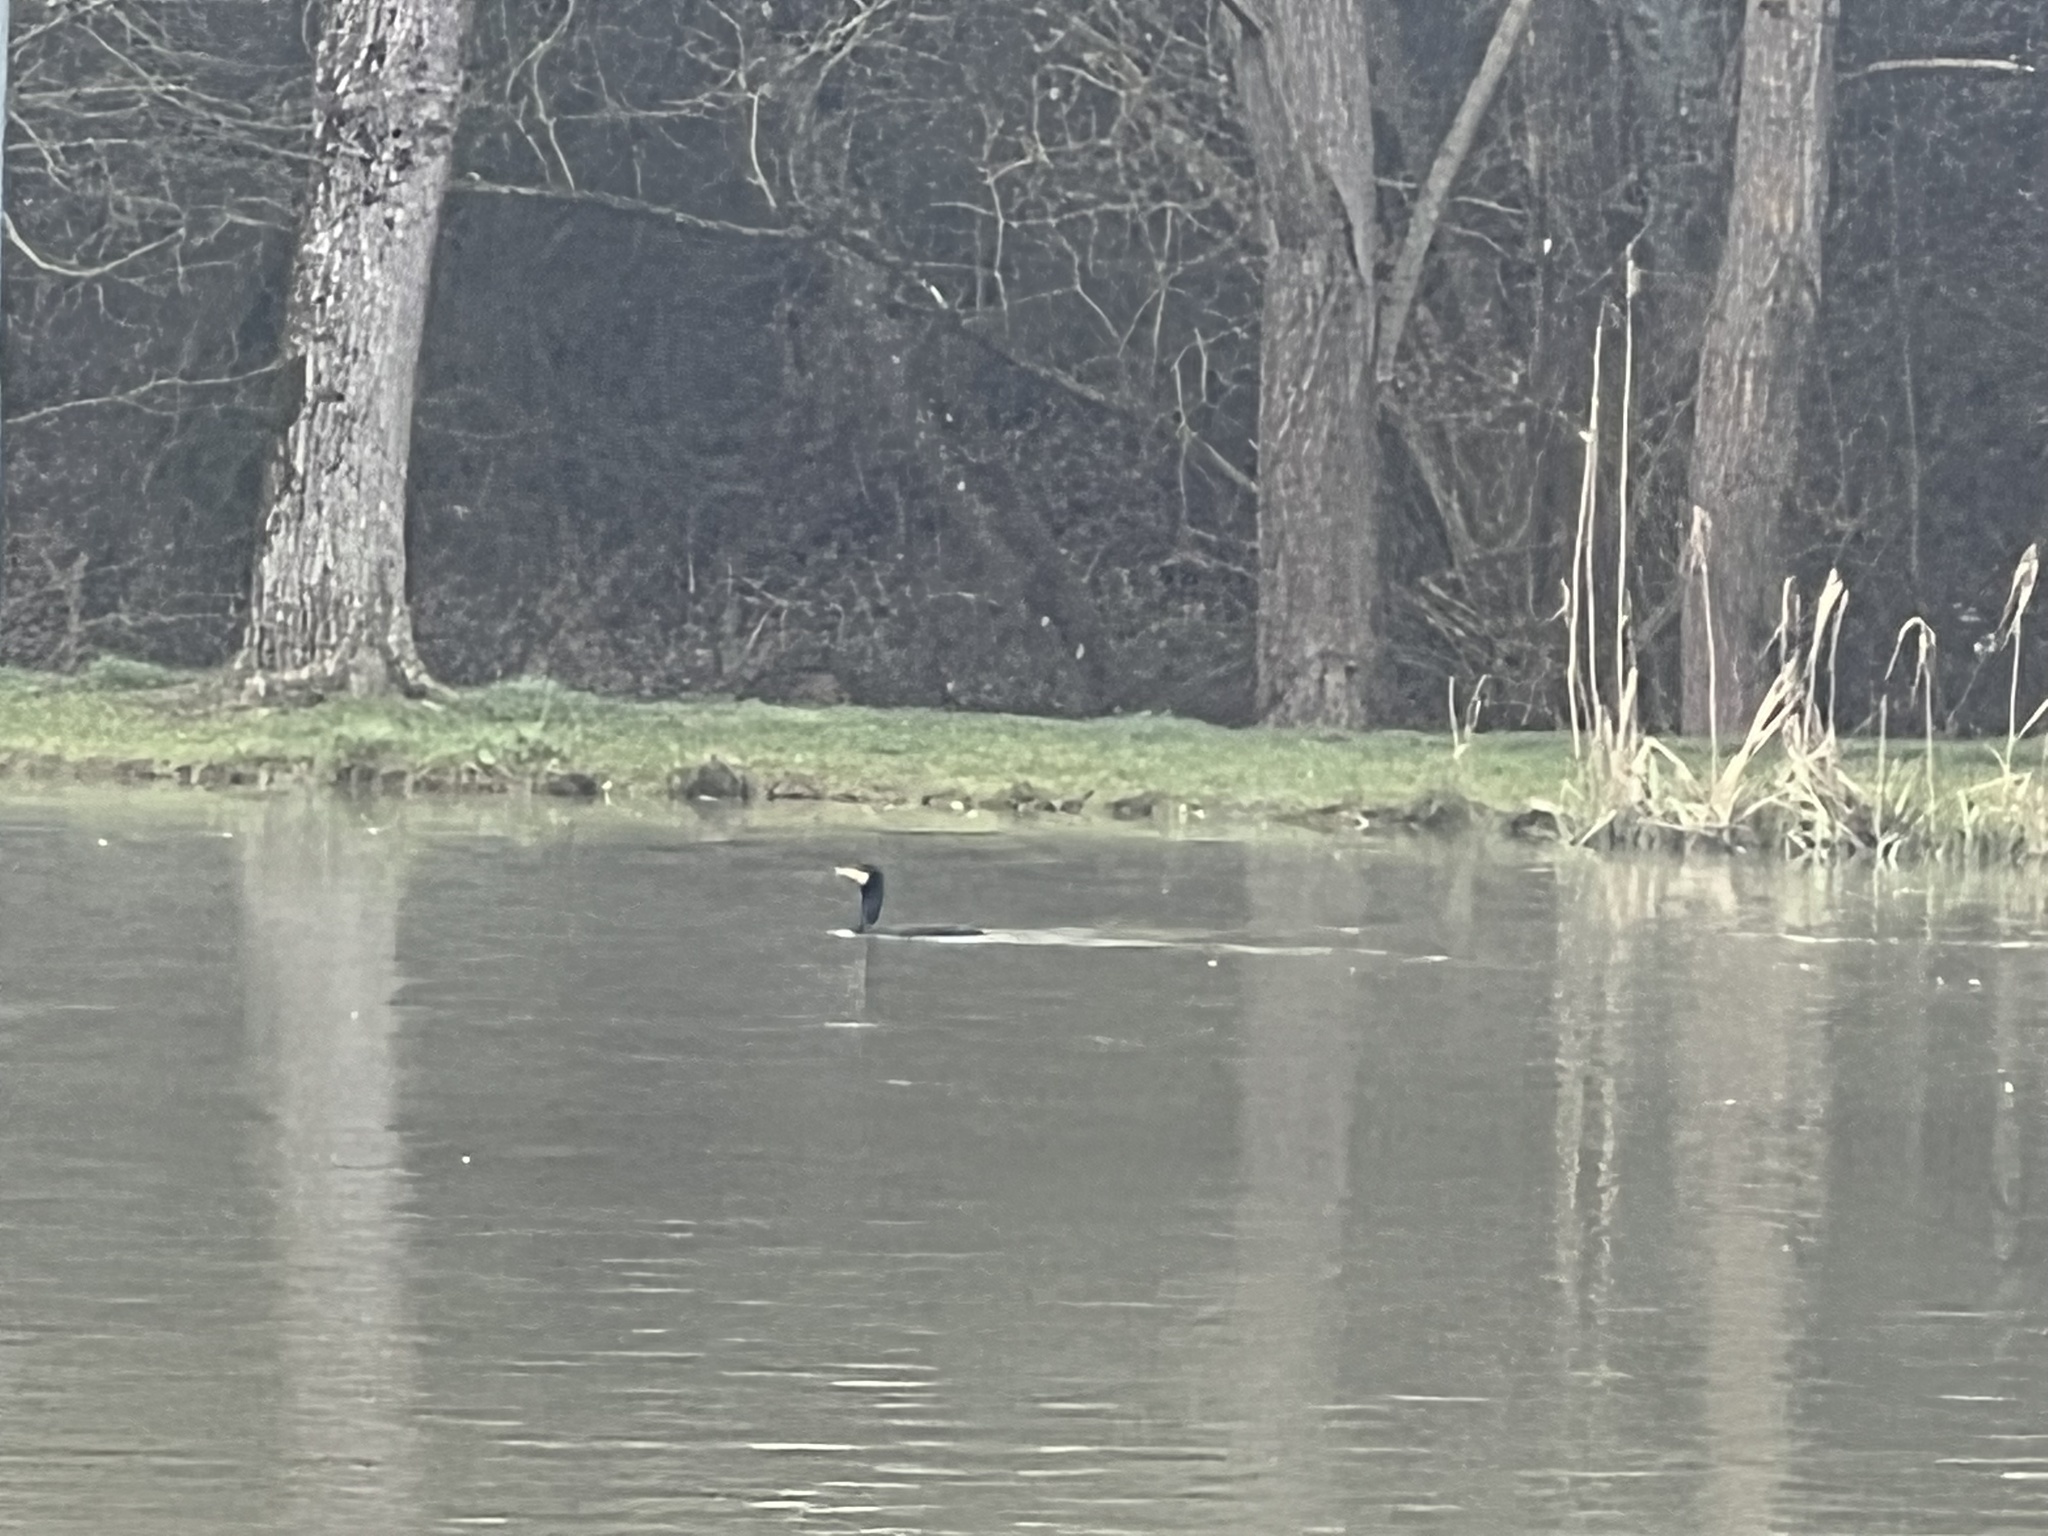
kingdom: Animalia
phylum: Chordata
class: Aves
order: Suliformes
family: Phalacrocoracidae
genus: Phalacrocorax
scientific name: Phalacrocorax carbo
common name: Great cormorant
